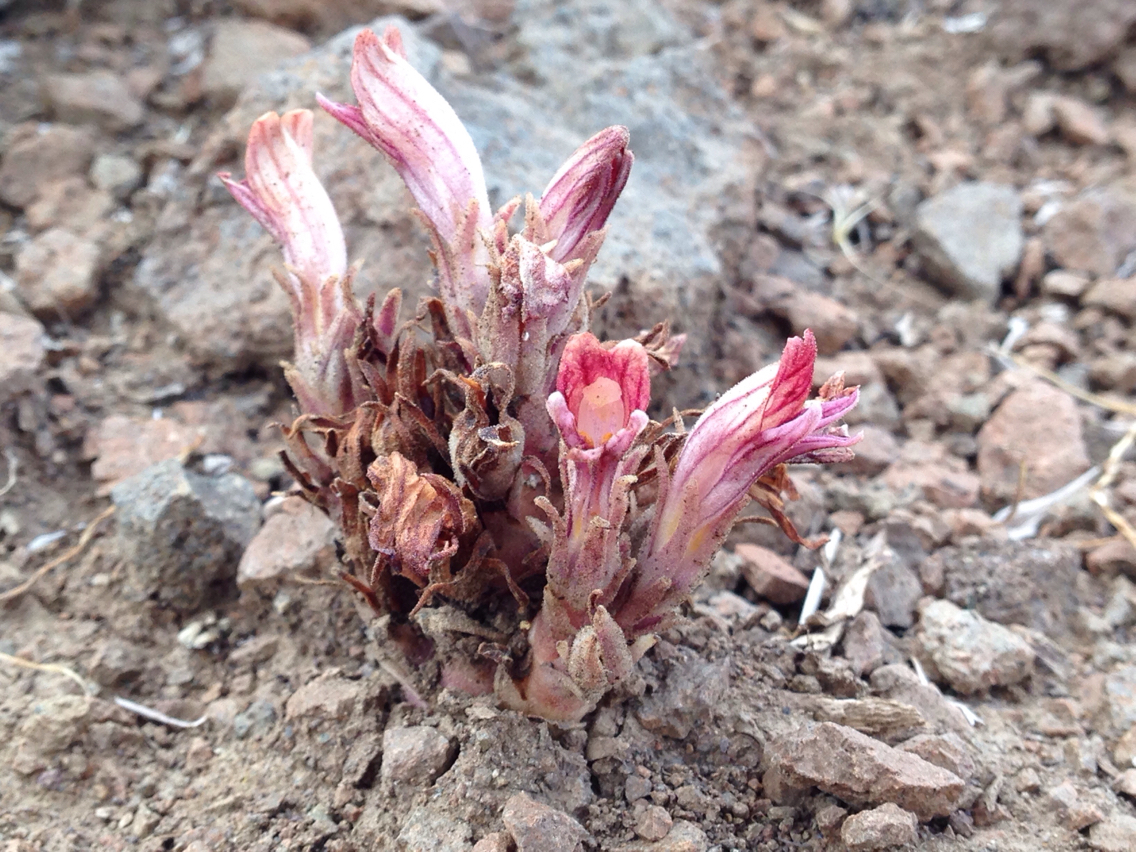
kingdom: Plantae
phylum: Tracheophyta
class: Magnoliopsida
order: Lamiales
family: Orobanchaceae
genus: Aphyllon
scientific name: Aphyllon corymbosum
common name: Flat-top broomrape
